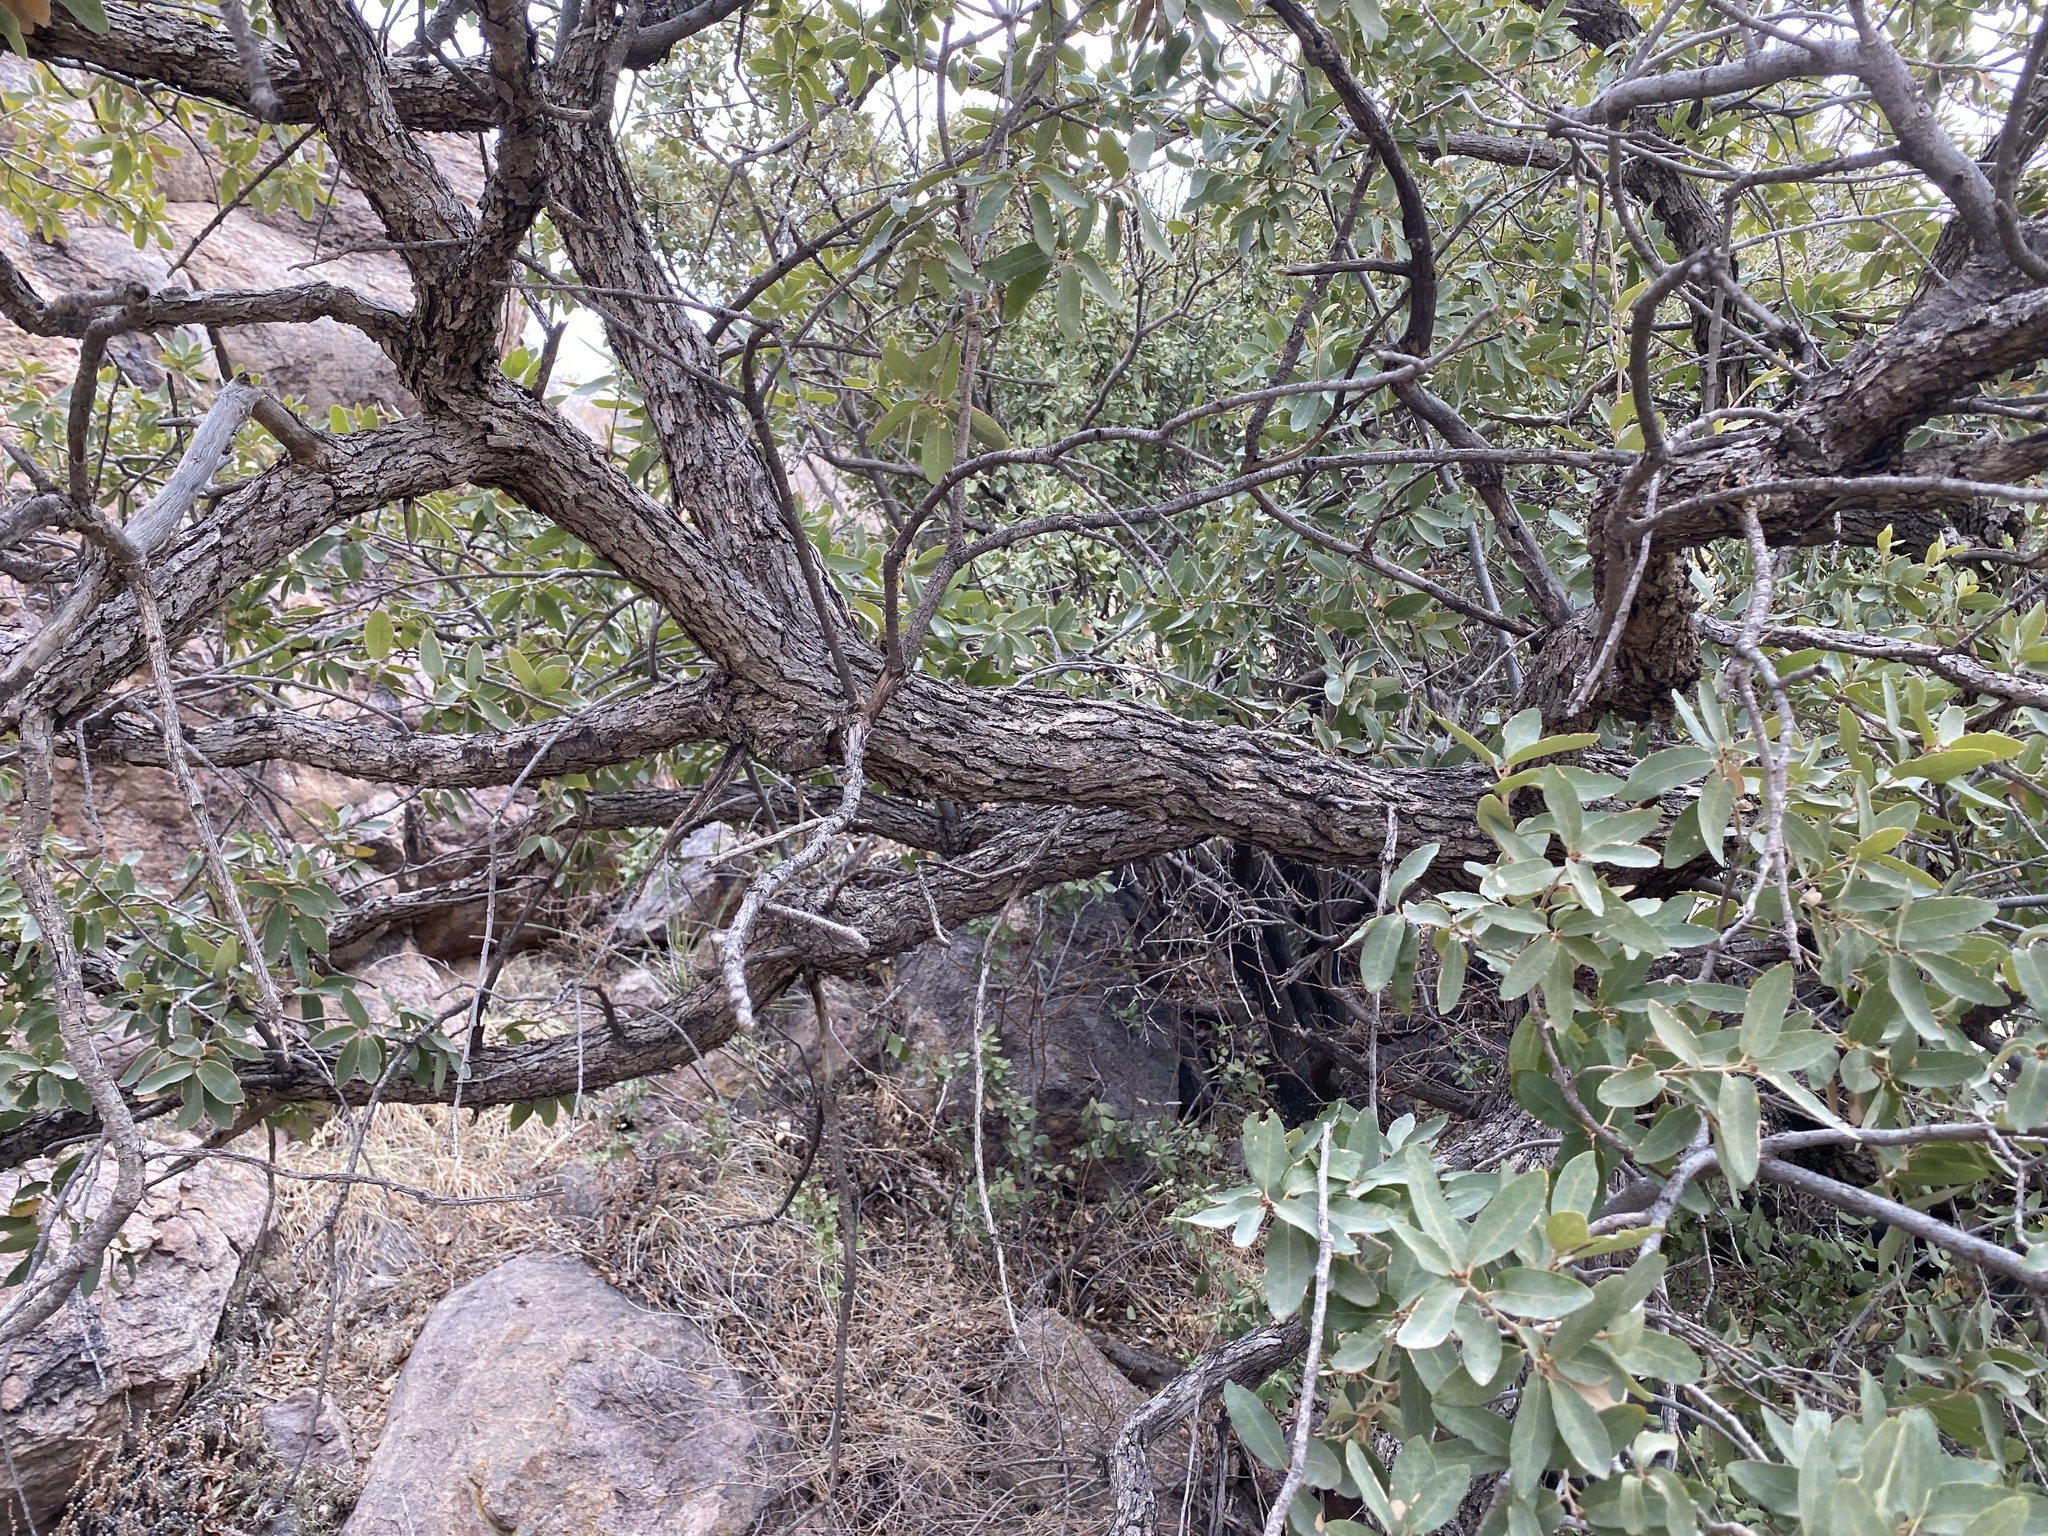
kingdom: Plantae
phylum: Tracheophyta
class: Magnoliopsida
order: Fagales
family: Fagaceae
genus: Quercus
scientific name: Quercus arizonica
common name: Arizona white oak
